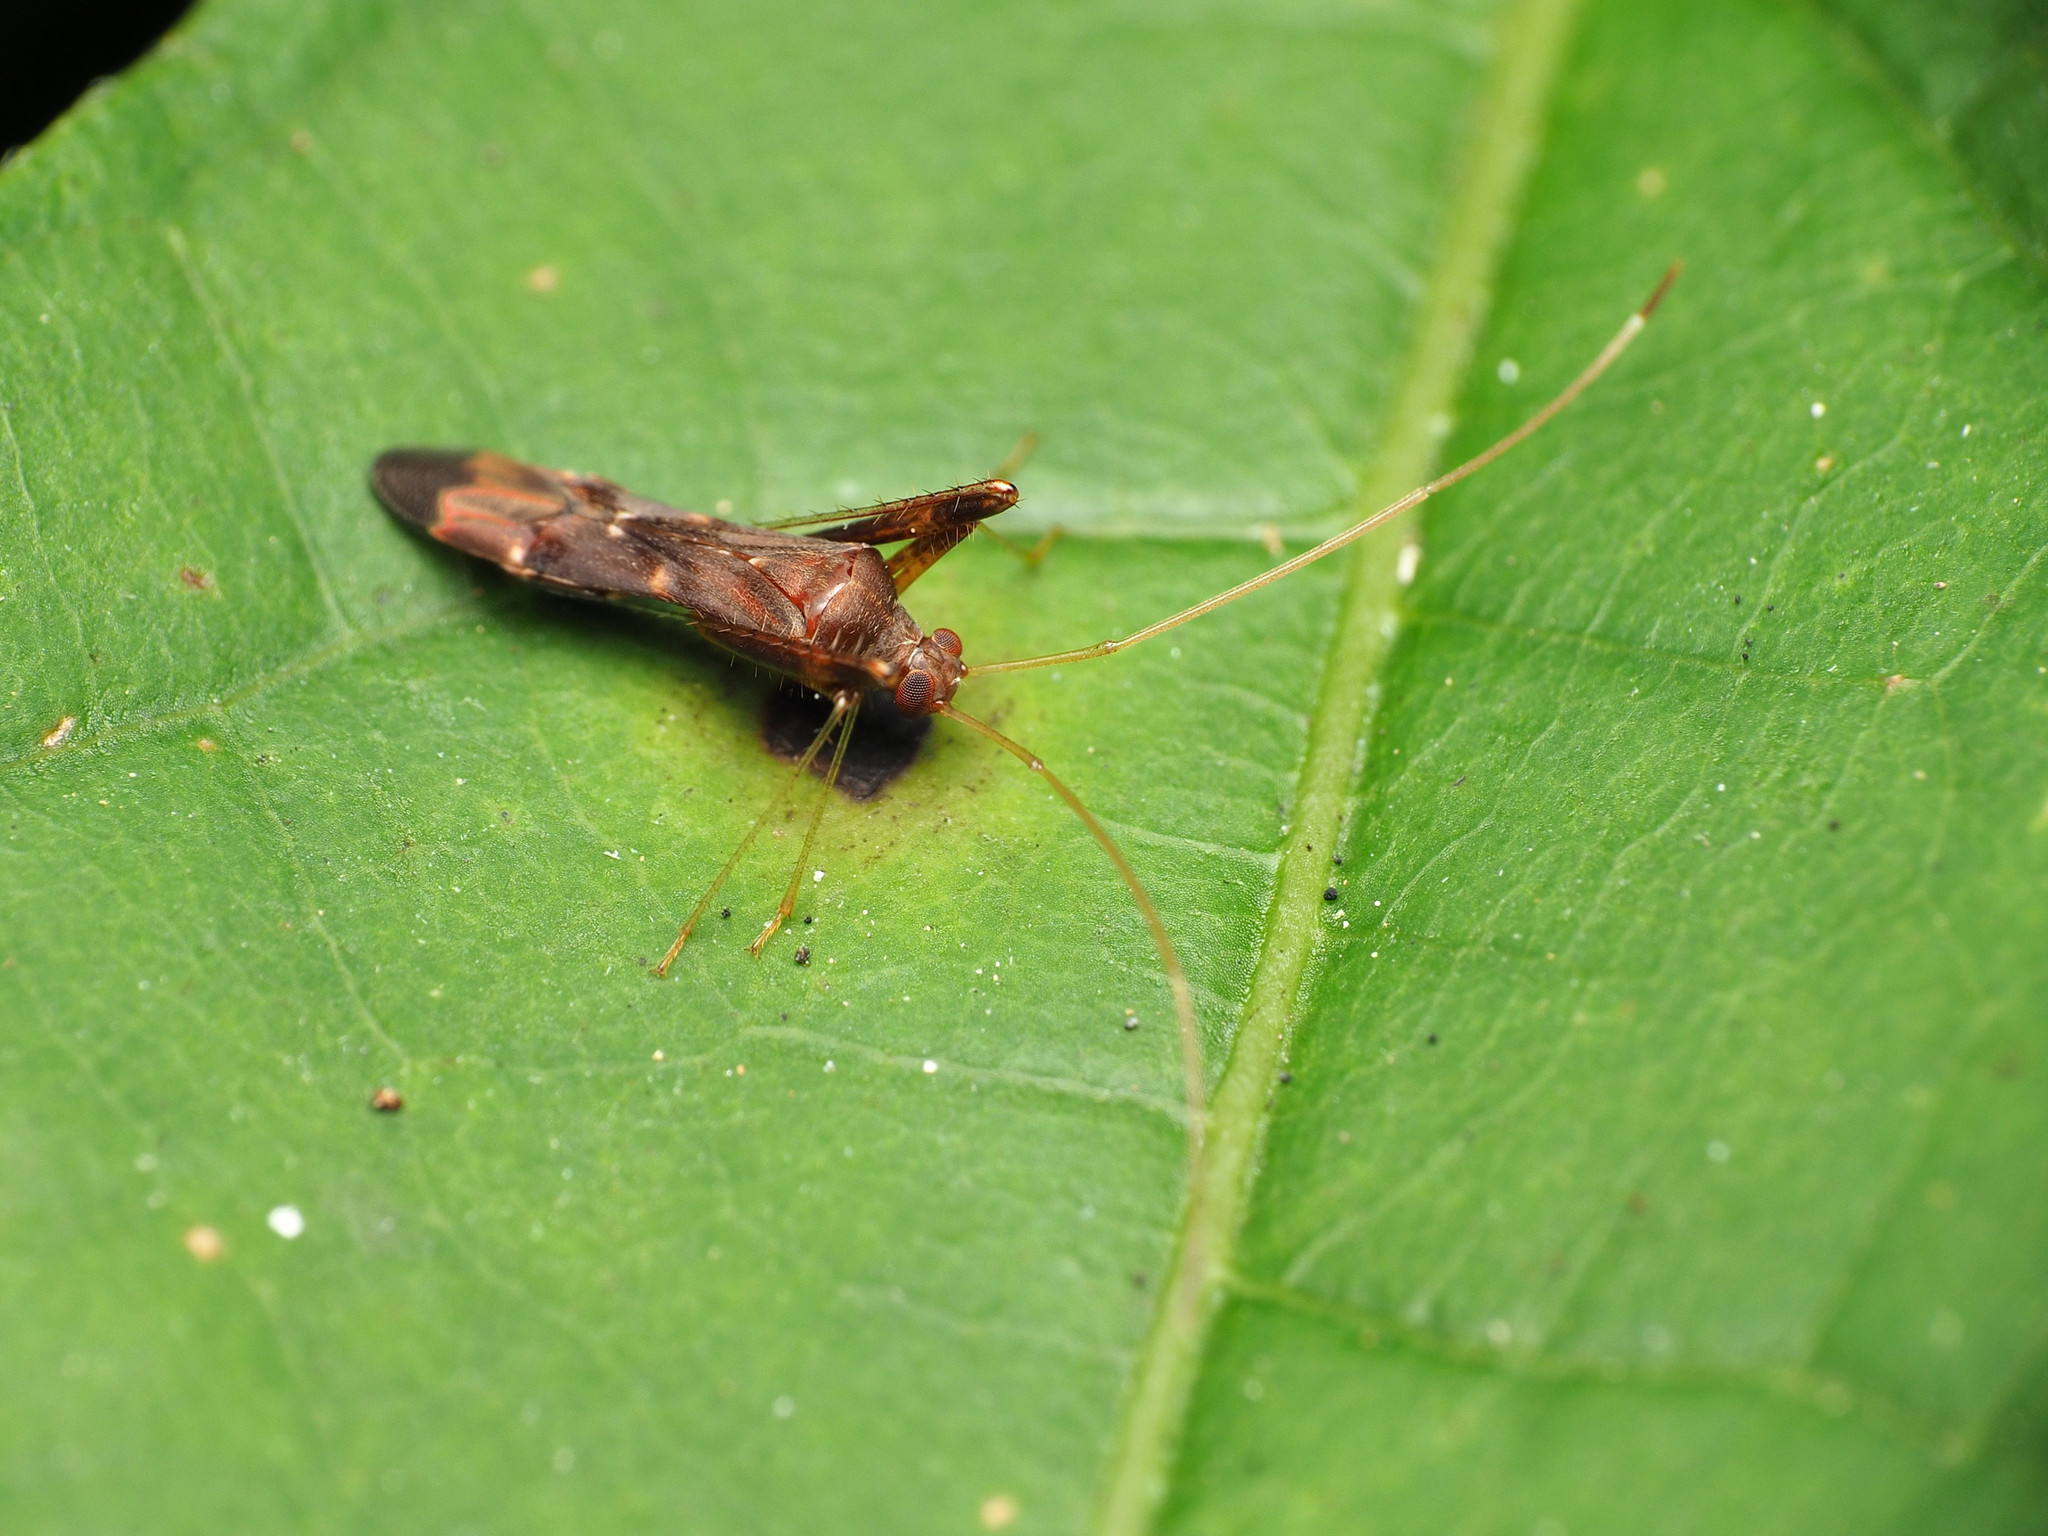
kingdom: Animalia
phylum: Arthropoda
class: Insecta
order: Hemiptera
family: Miridae
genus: Paraxenetus
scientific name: Paraxenetus guttulatus
